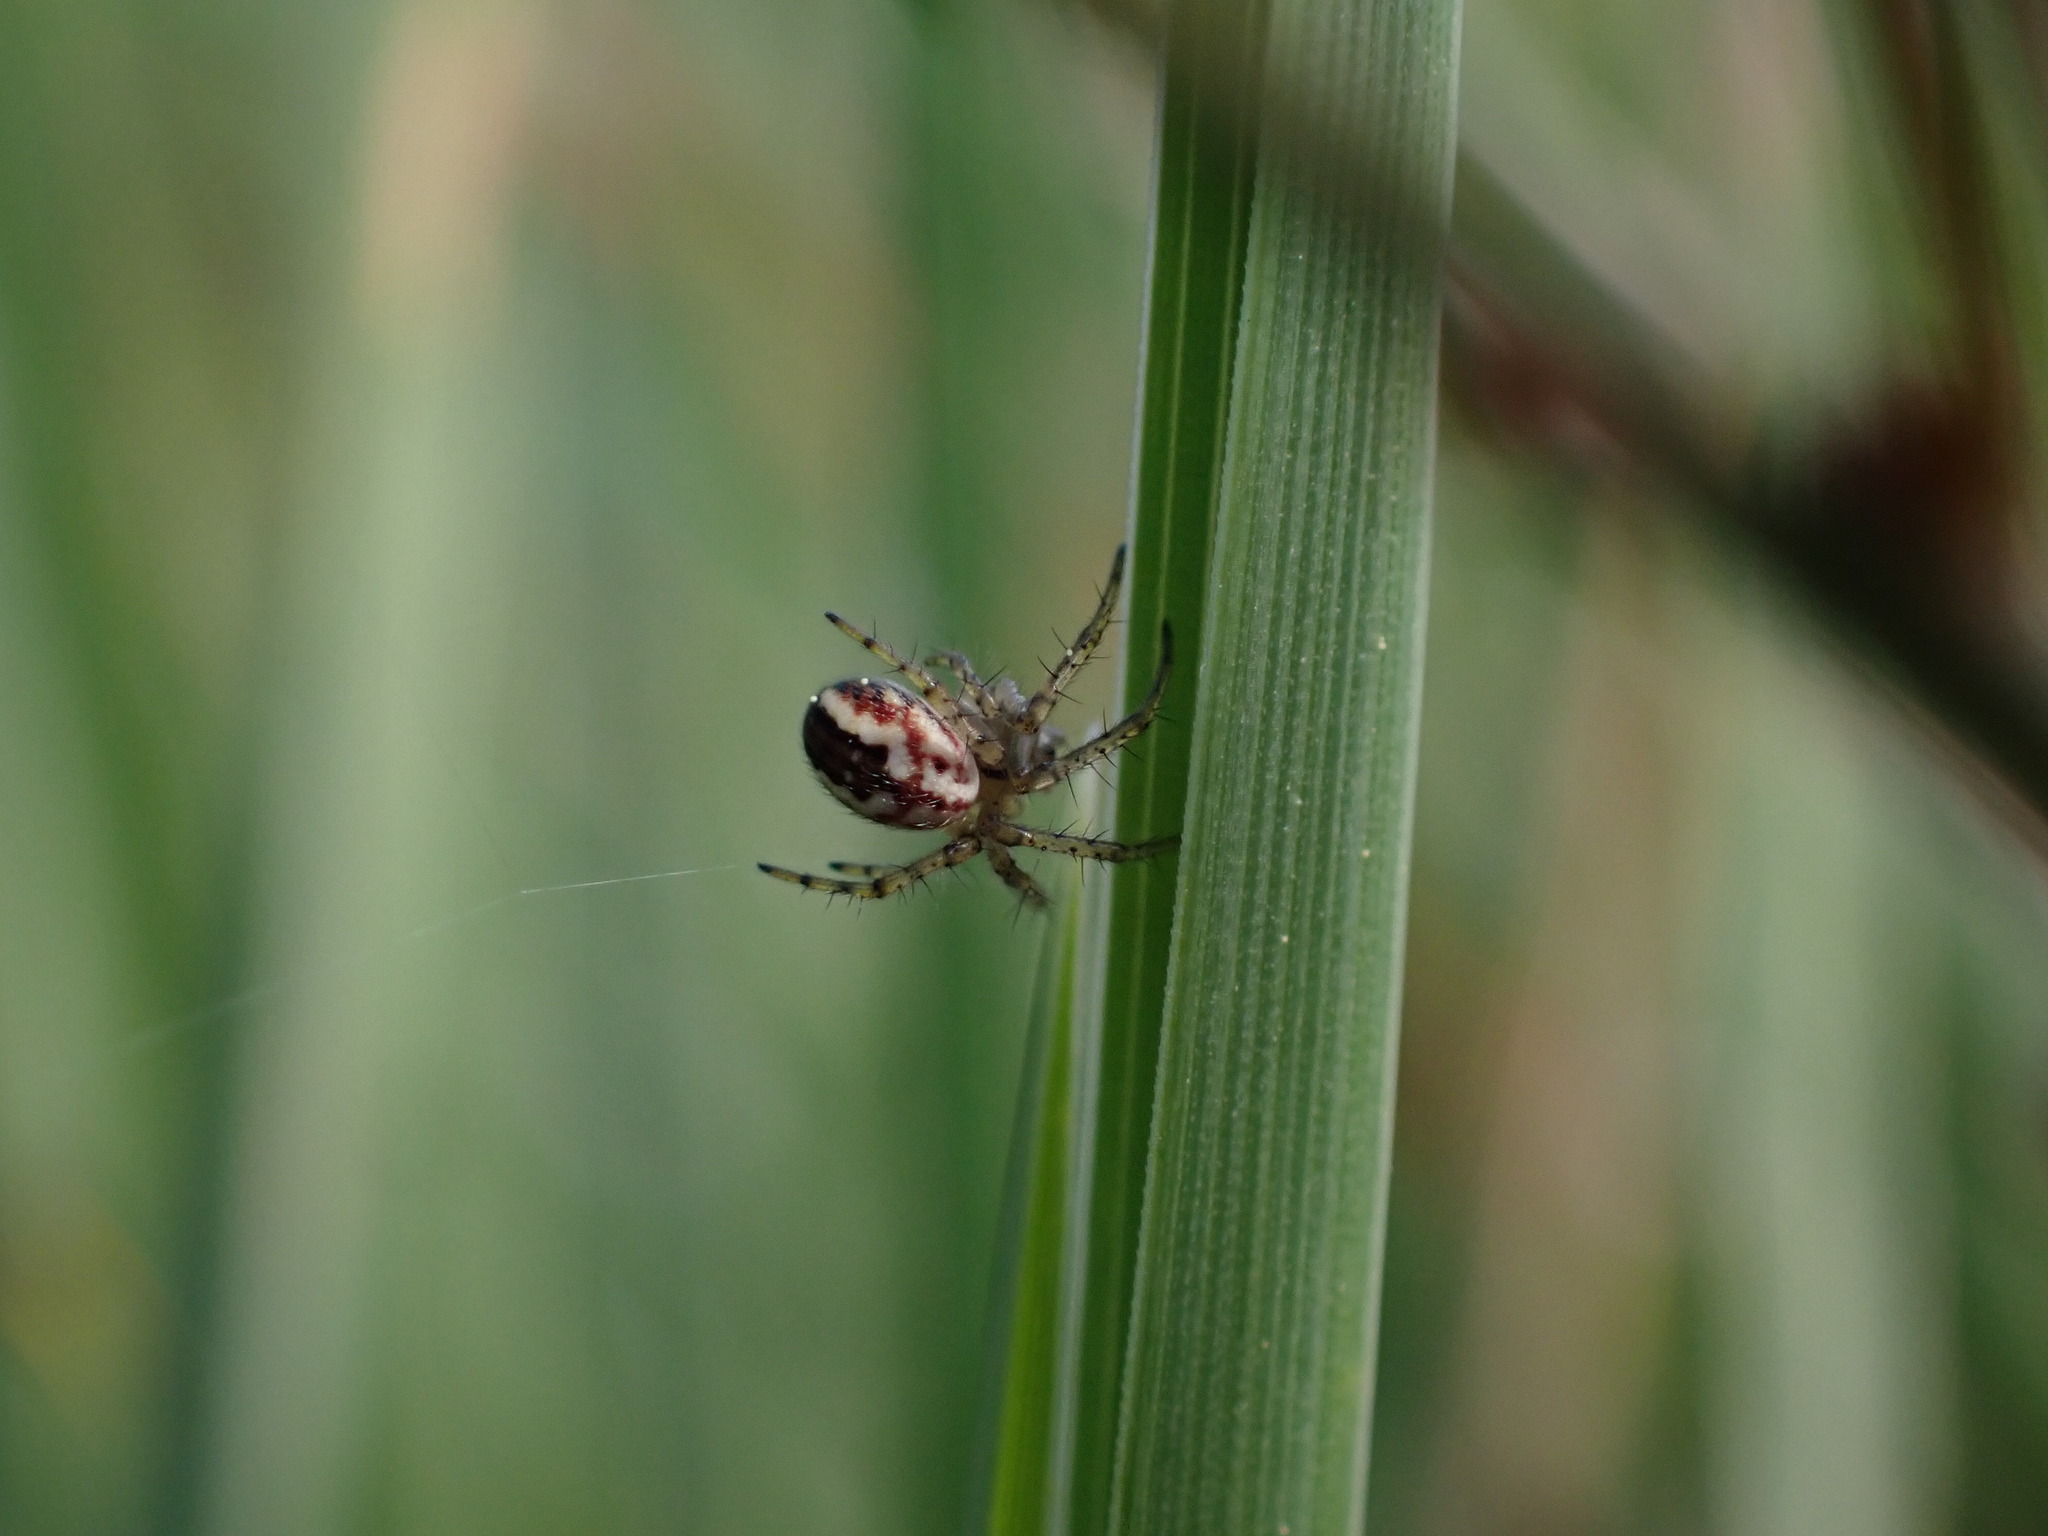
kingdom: Animalia
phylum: Arthropoda
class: Arachnida
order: Araneae
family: Araneidae
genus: Mangora
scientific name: Mangora acalypha
